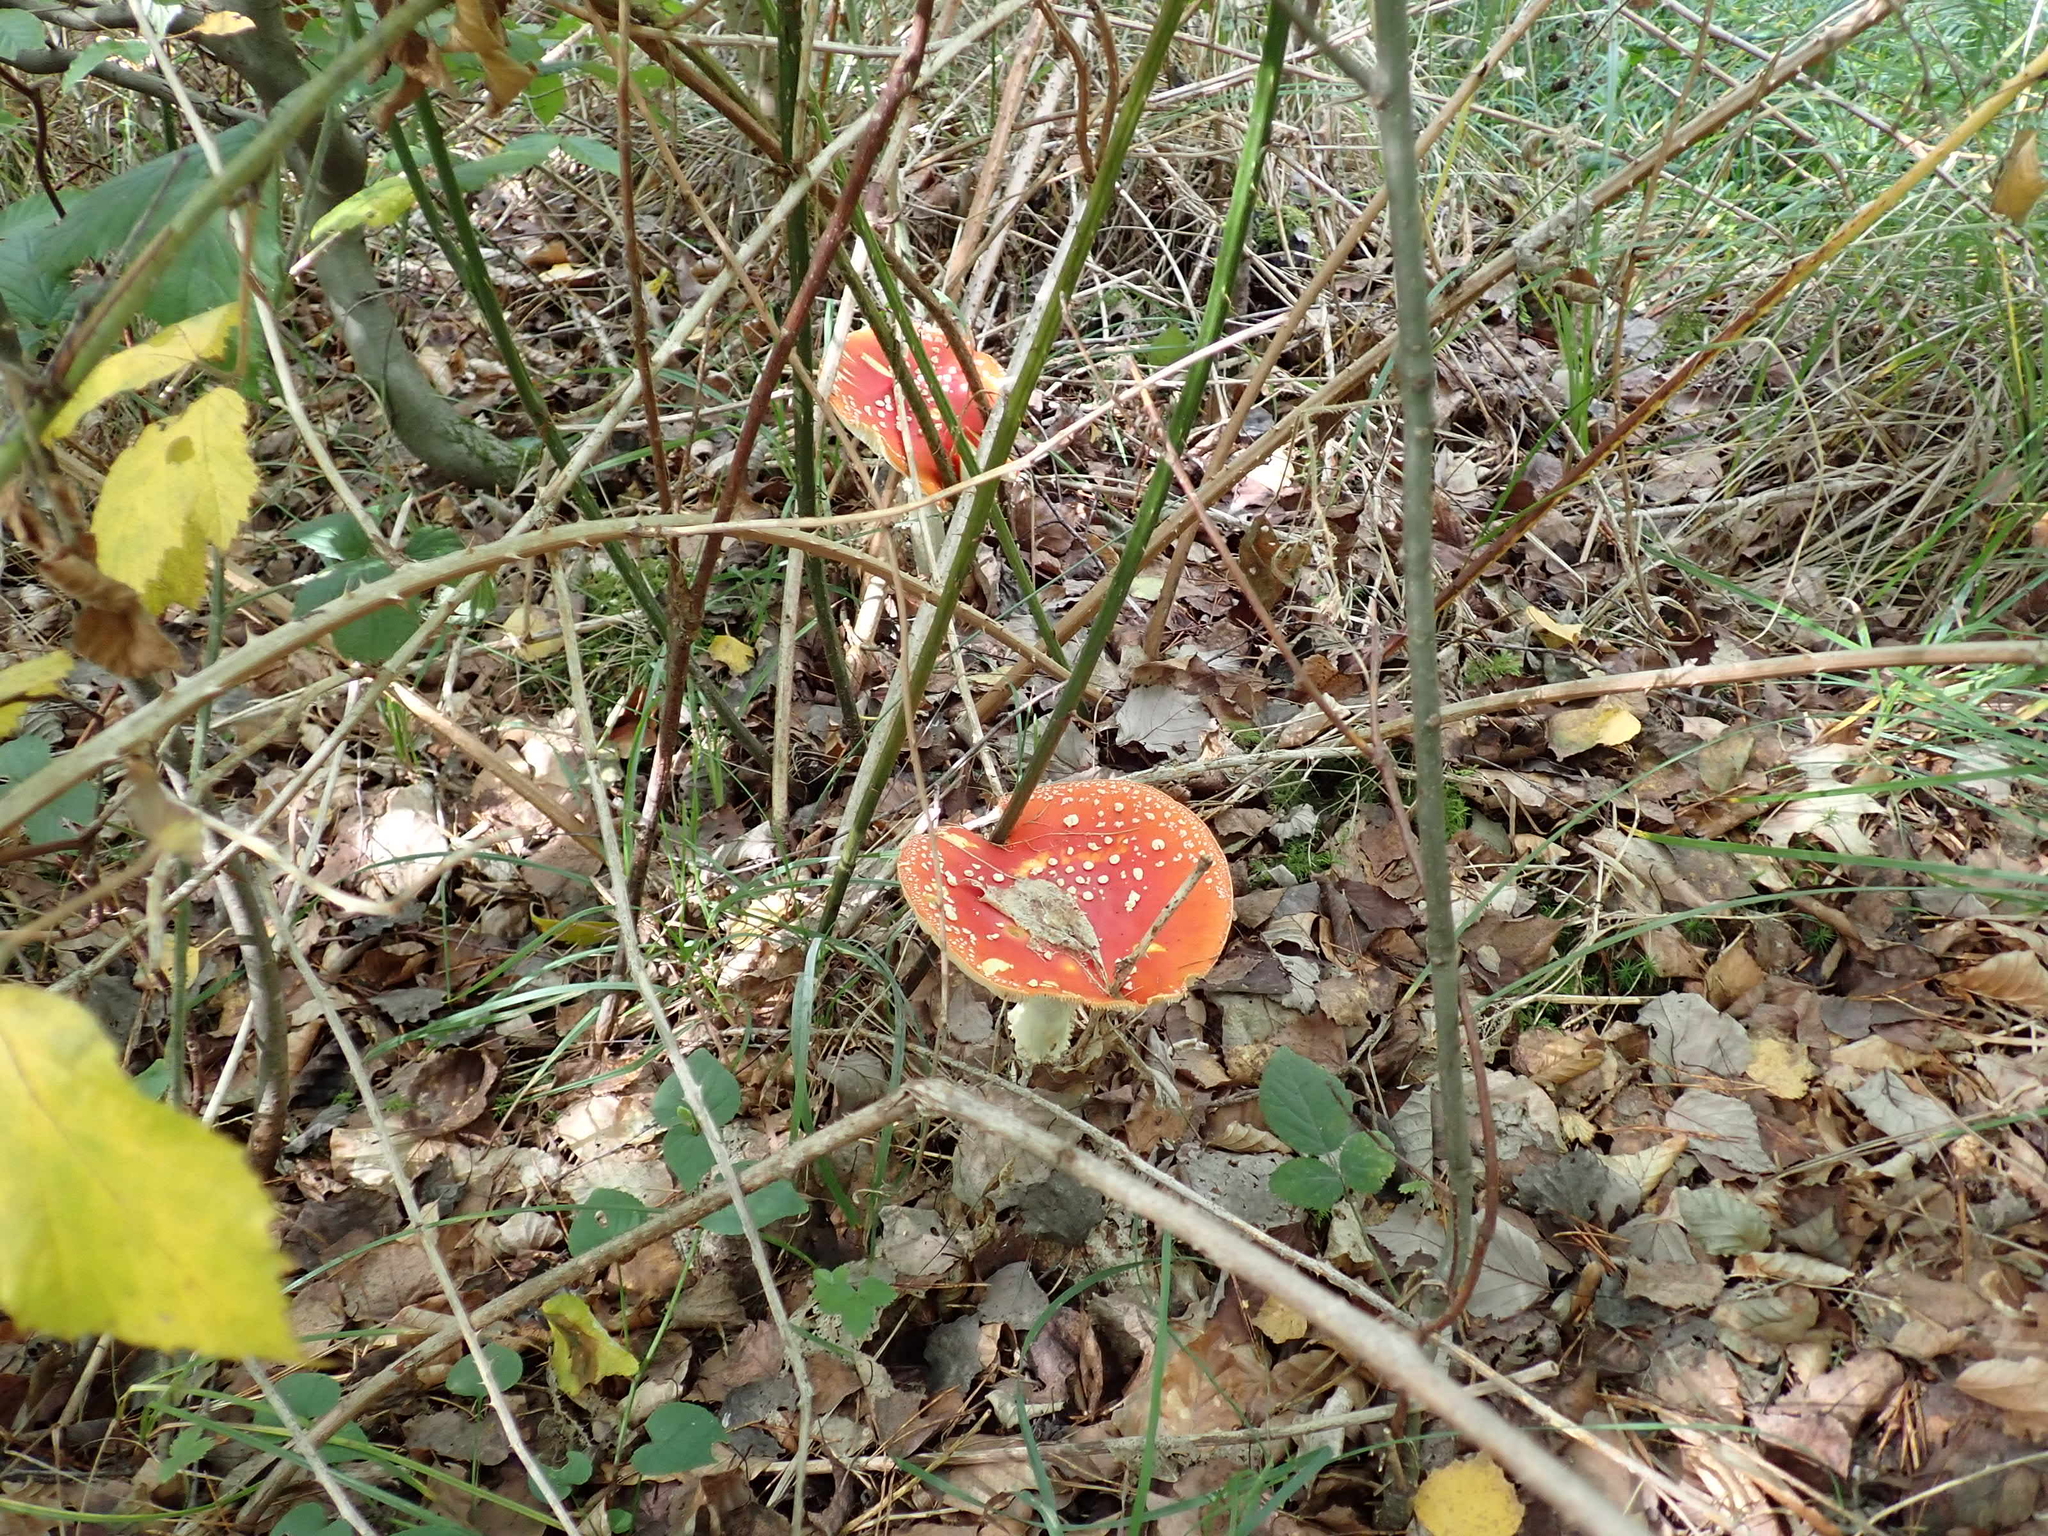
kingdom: Fungi
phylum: Basidiomycota
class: Agaricomycetes
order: Agaricales
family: Amanitaceae
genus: Amanita
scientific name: Amanita muscaria
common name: Fly agaric
